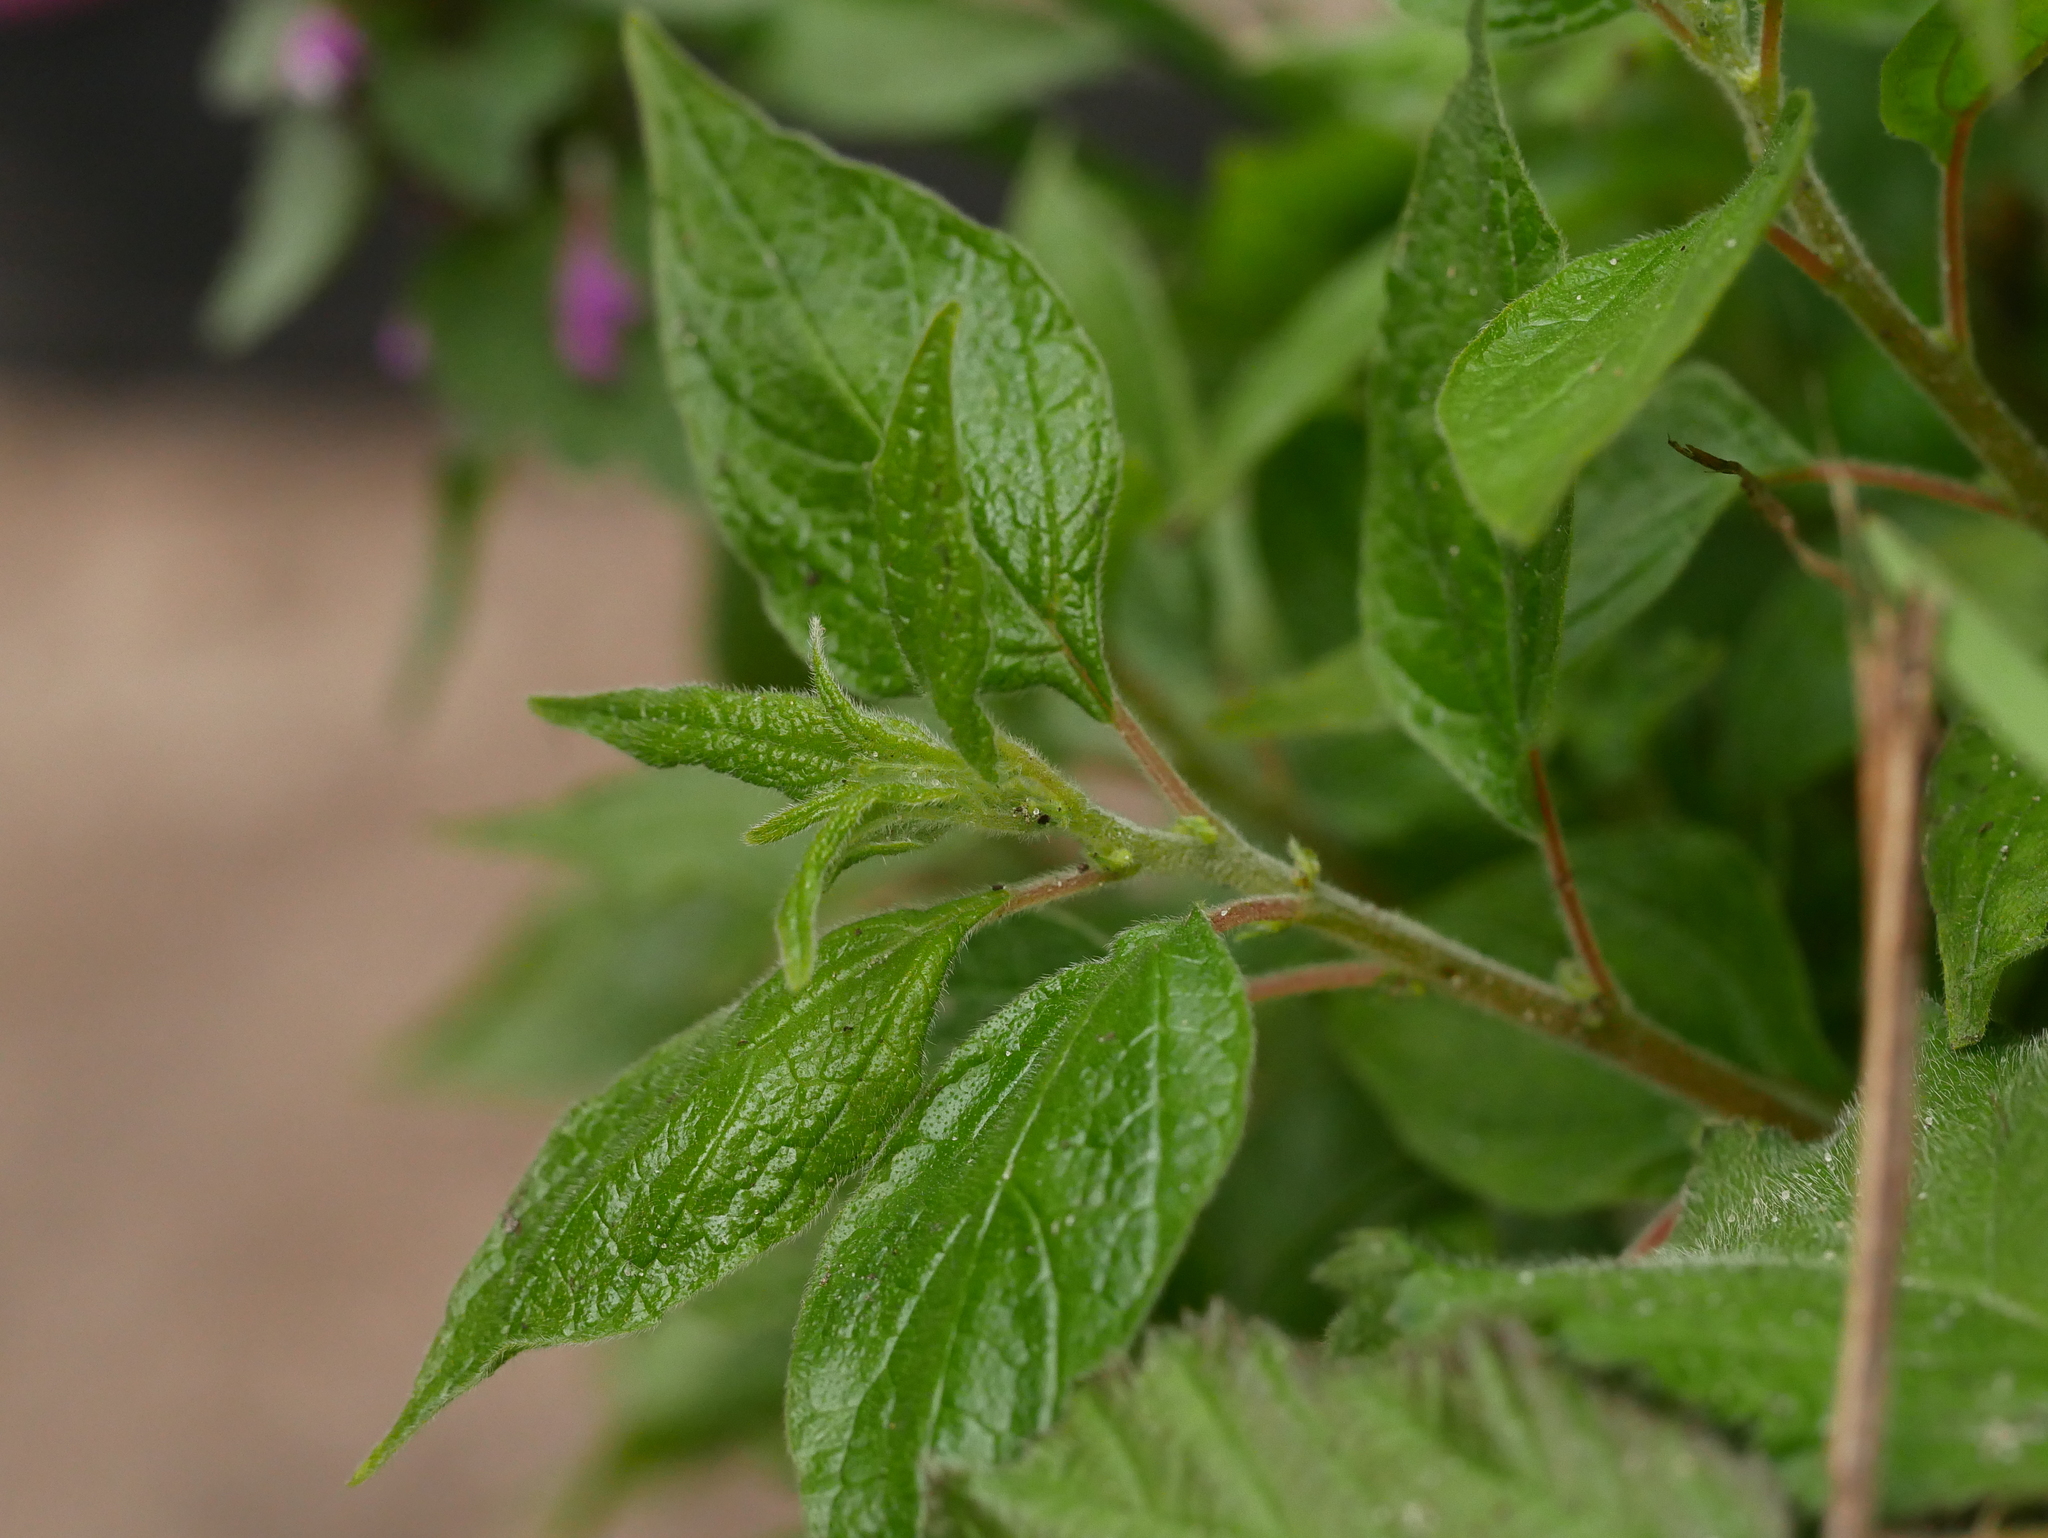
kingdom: Plantae
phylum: Tracheophyta
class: Magnoliopsida
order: Rosales
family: Urticaceae
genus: Parietaria
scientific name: Parietaria officinalis
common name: Eastern pellitory-of-the-wall
